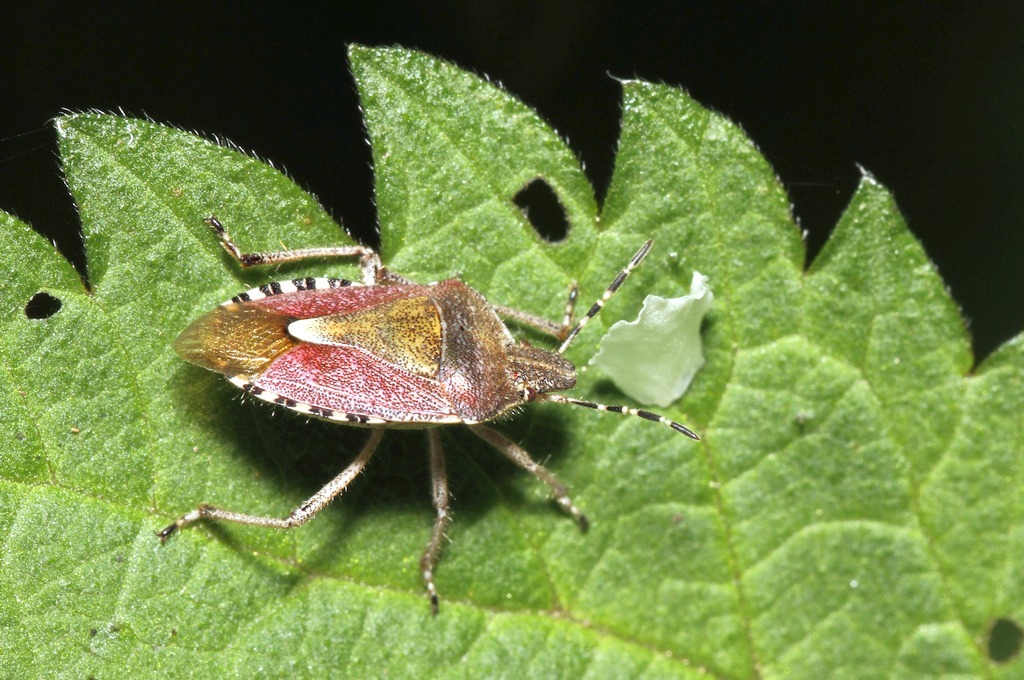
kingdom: Animalia
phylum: Arthropoda
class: Insecta
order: Hemiptera
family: Pentatomidae
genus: Dolycoris
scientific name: Dolycoris baccarum
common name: Sloe bug
